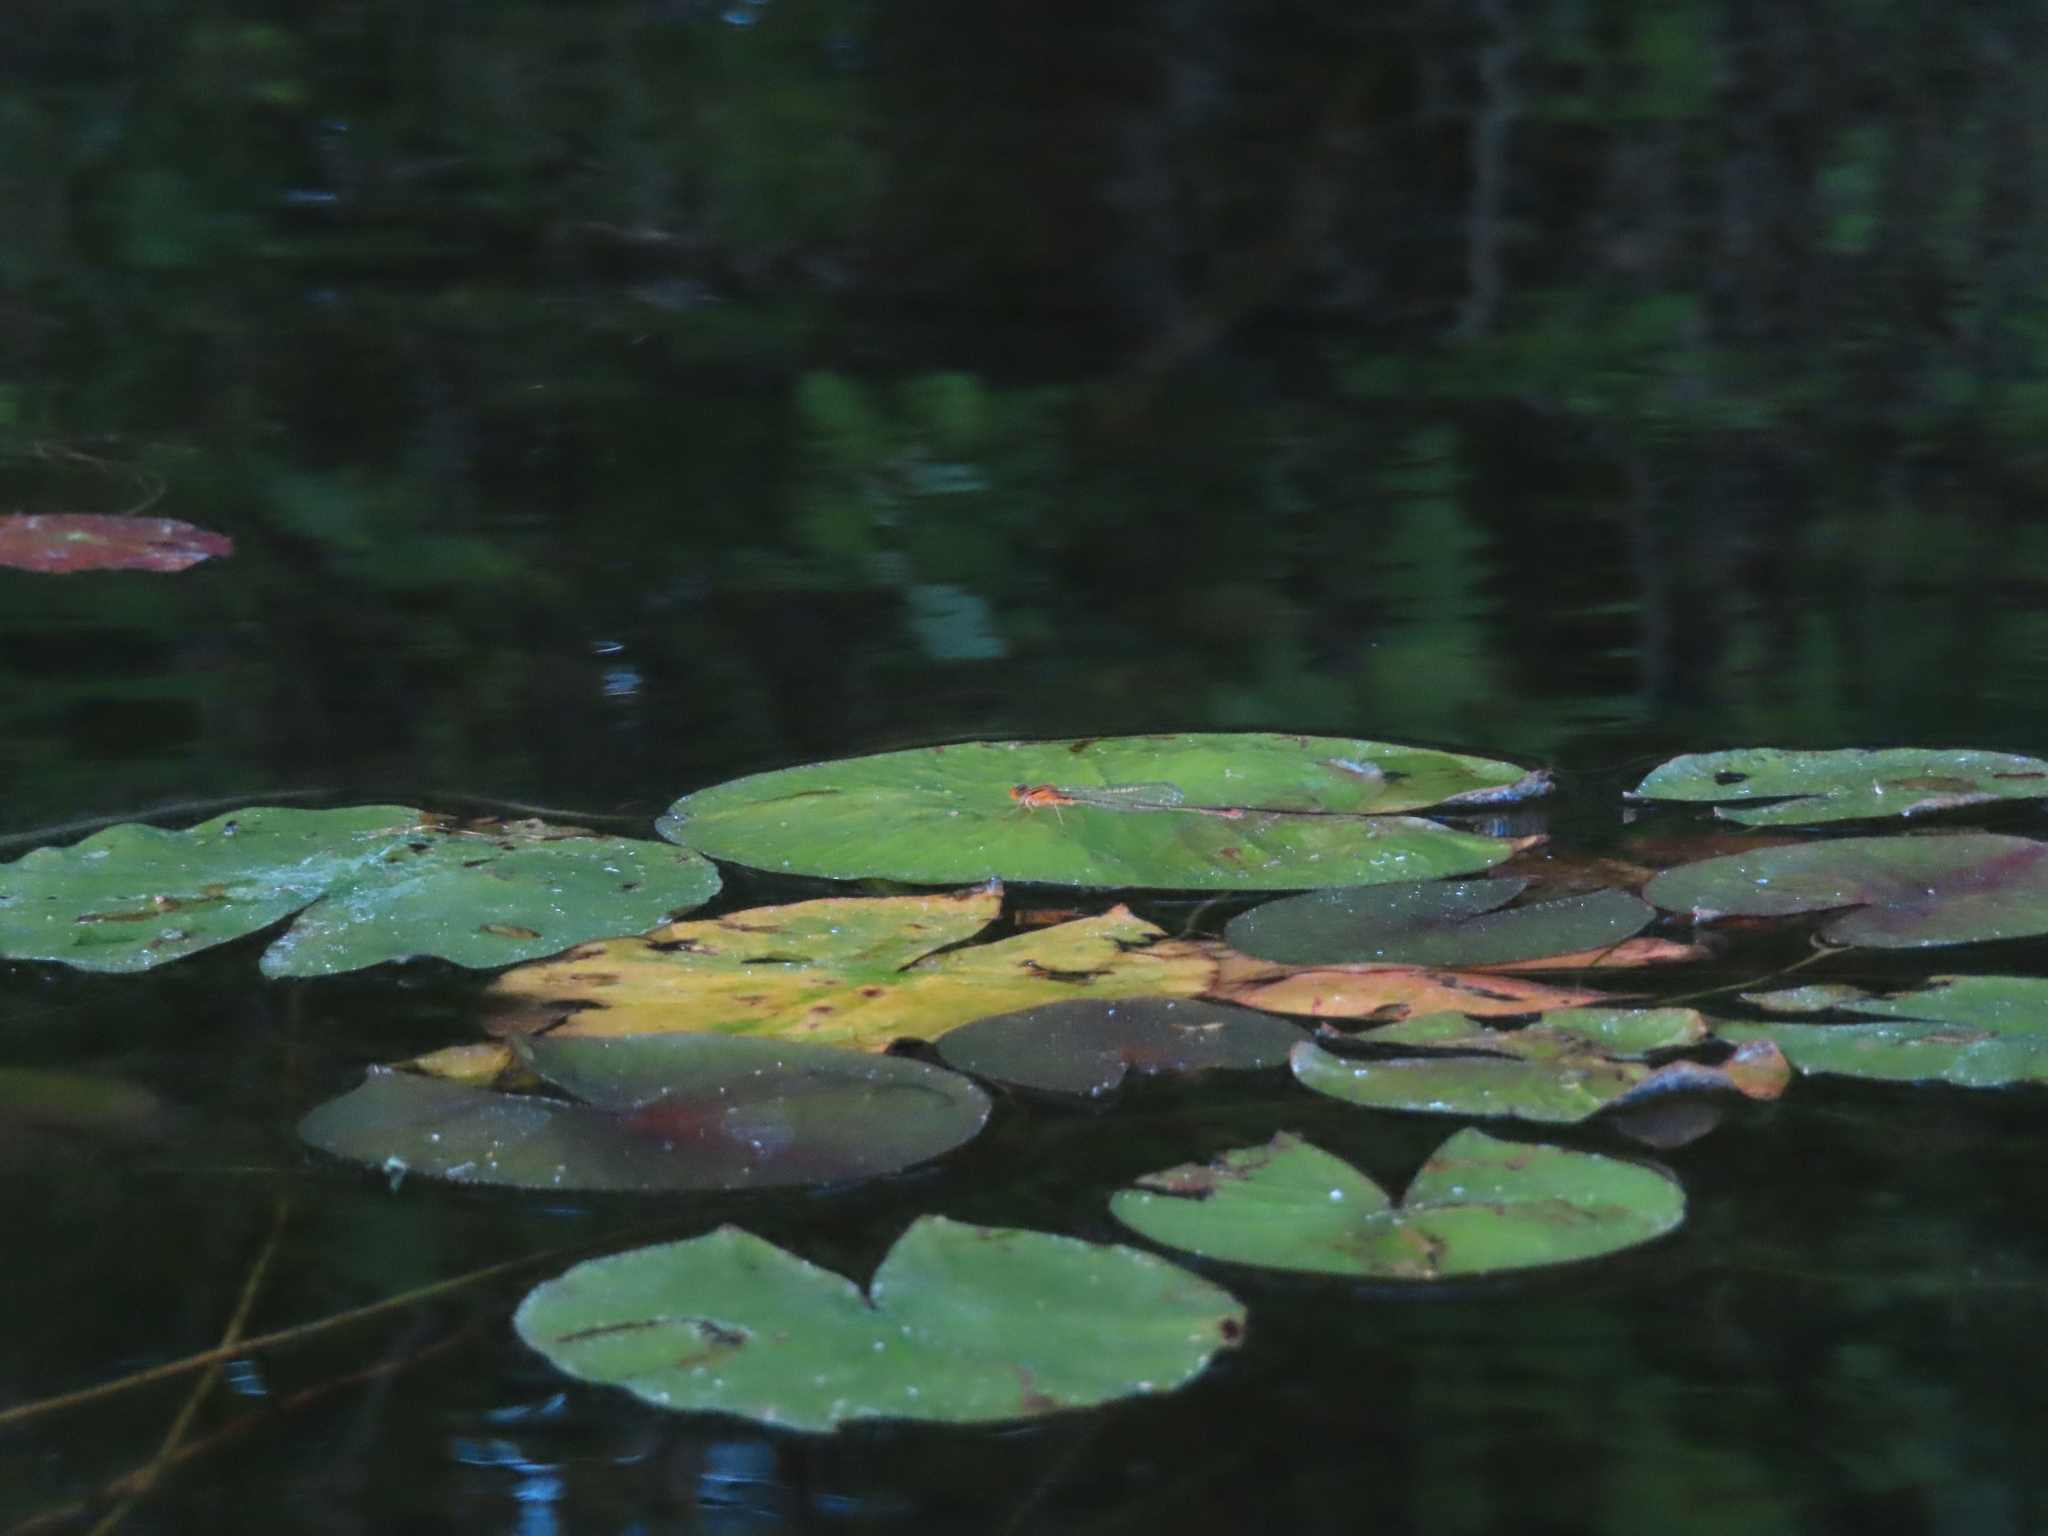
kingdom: Animalia
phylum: Arthropoda
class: Insecta
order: Odonata
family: Coenagrionidae
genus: Enallagma
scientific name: Enallagma signatum
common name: Orange bluet
